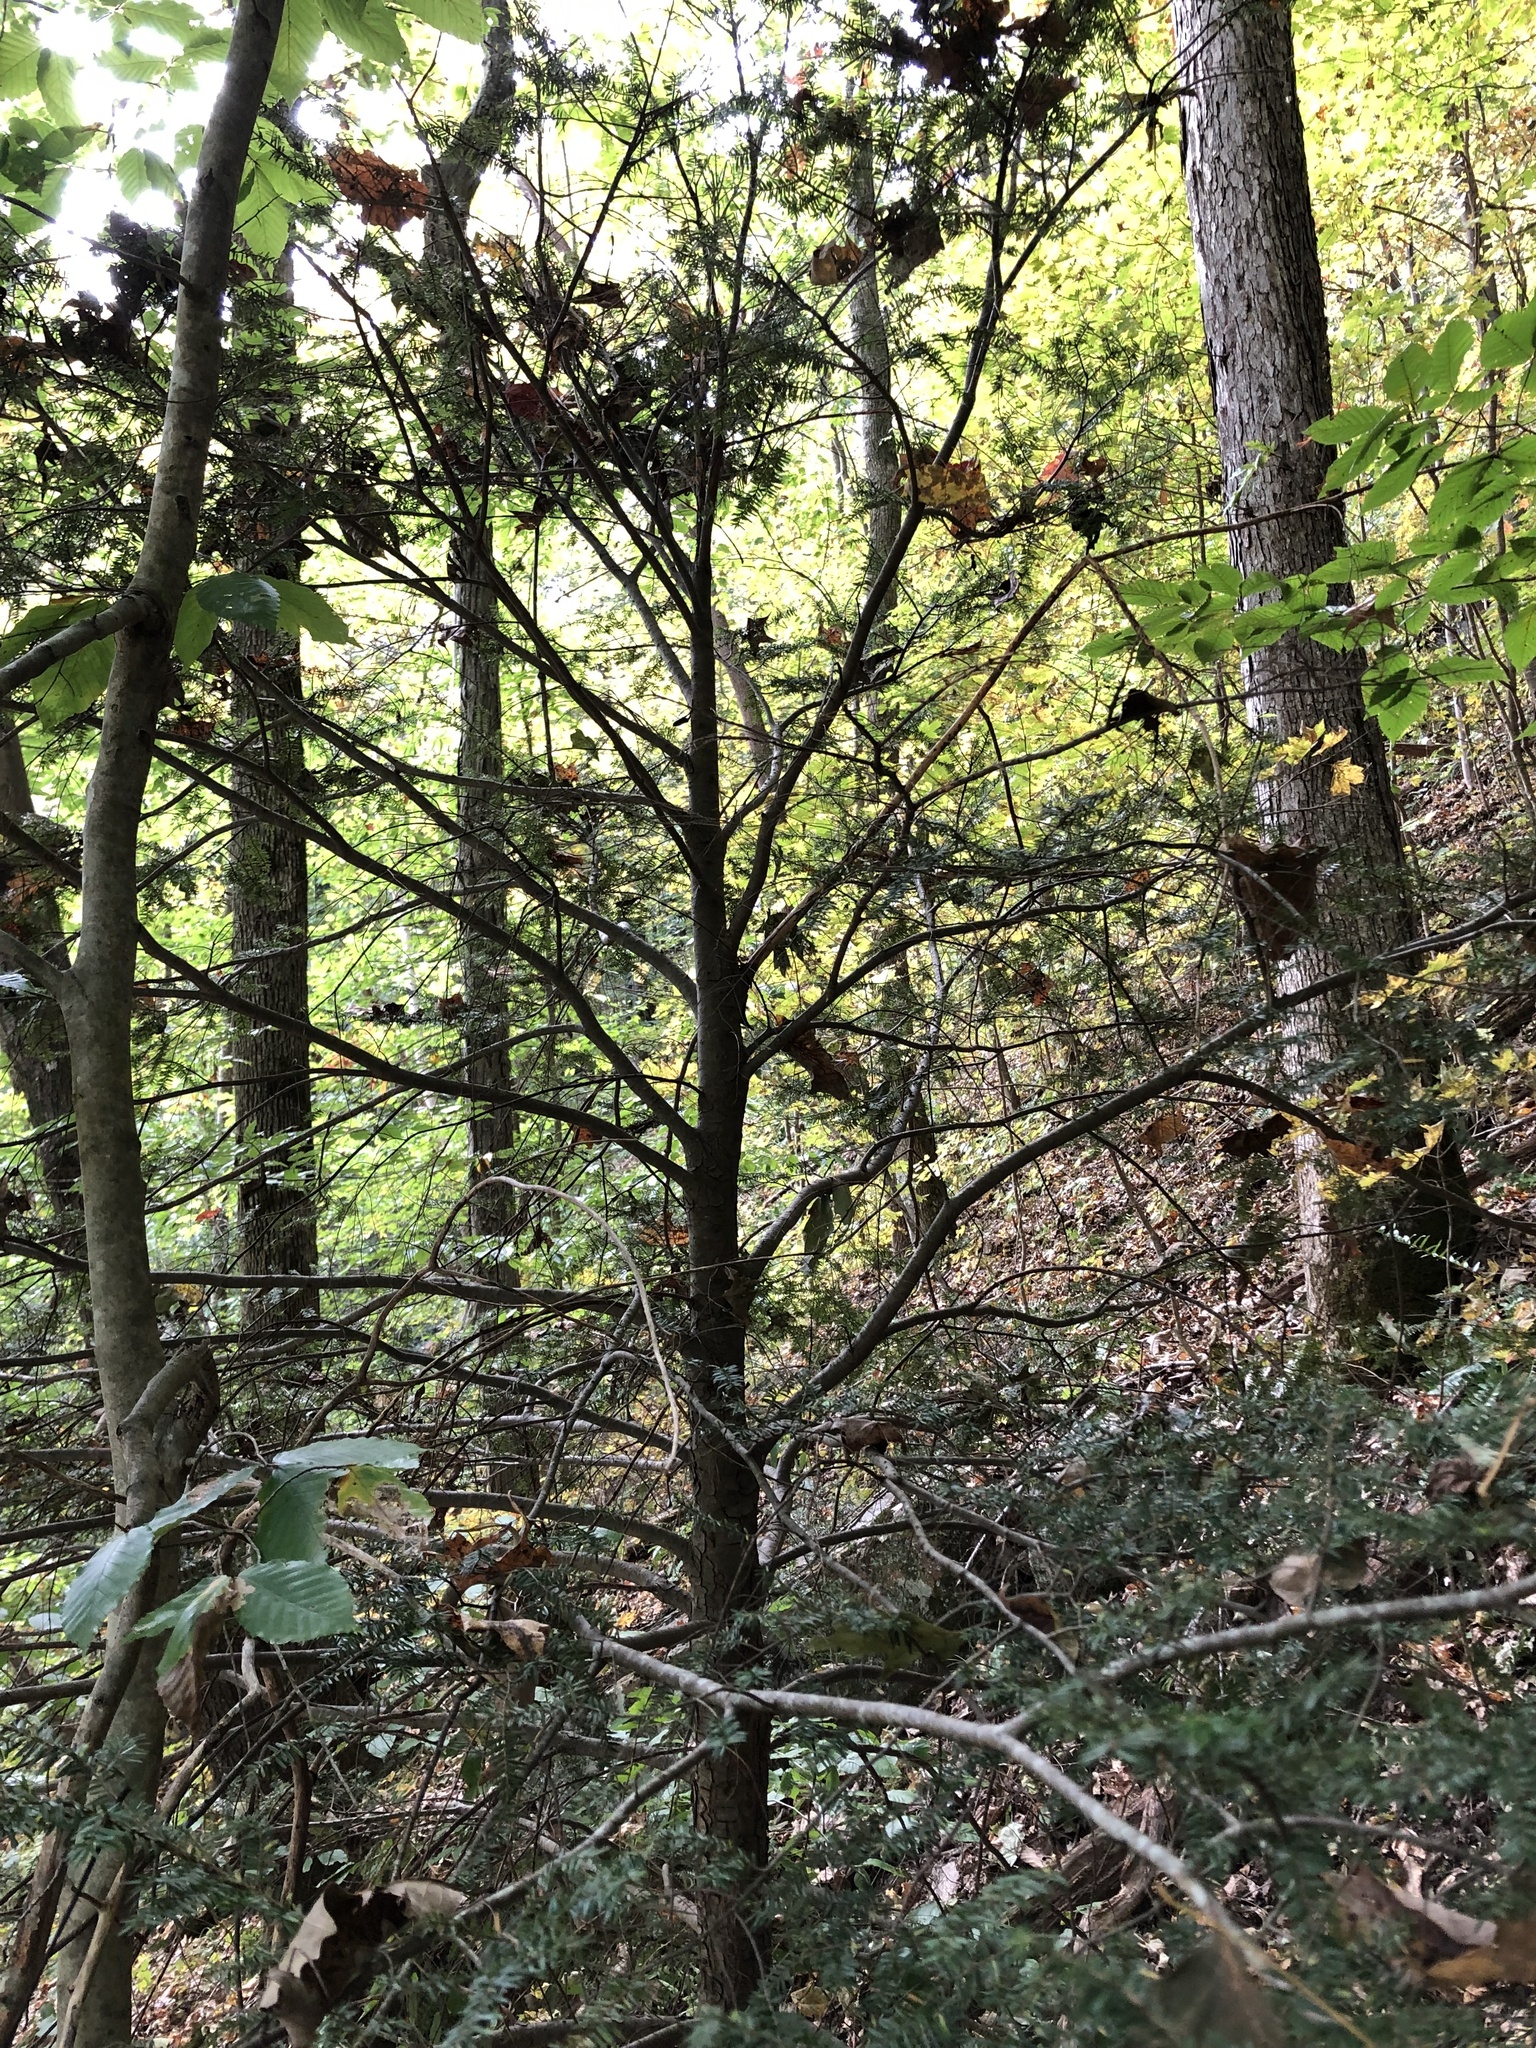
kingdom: Plantae
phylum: Tracheophyta
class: Pinopsida
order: Pinales
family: Pinaceae
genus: Tsuga
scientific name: Tsuga canadensis
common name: Eastern hemlock
